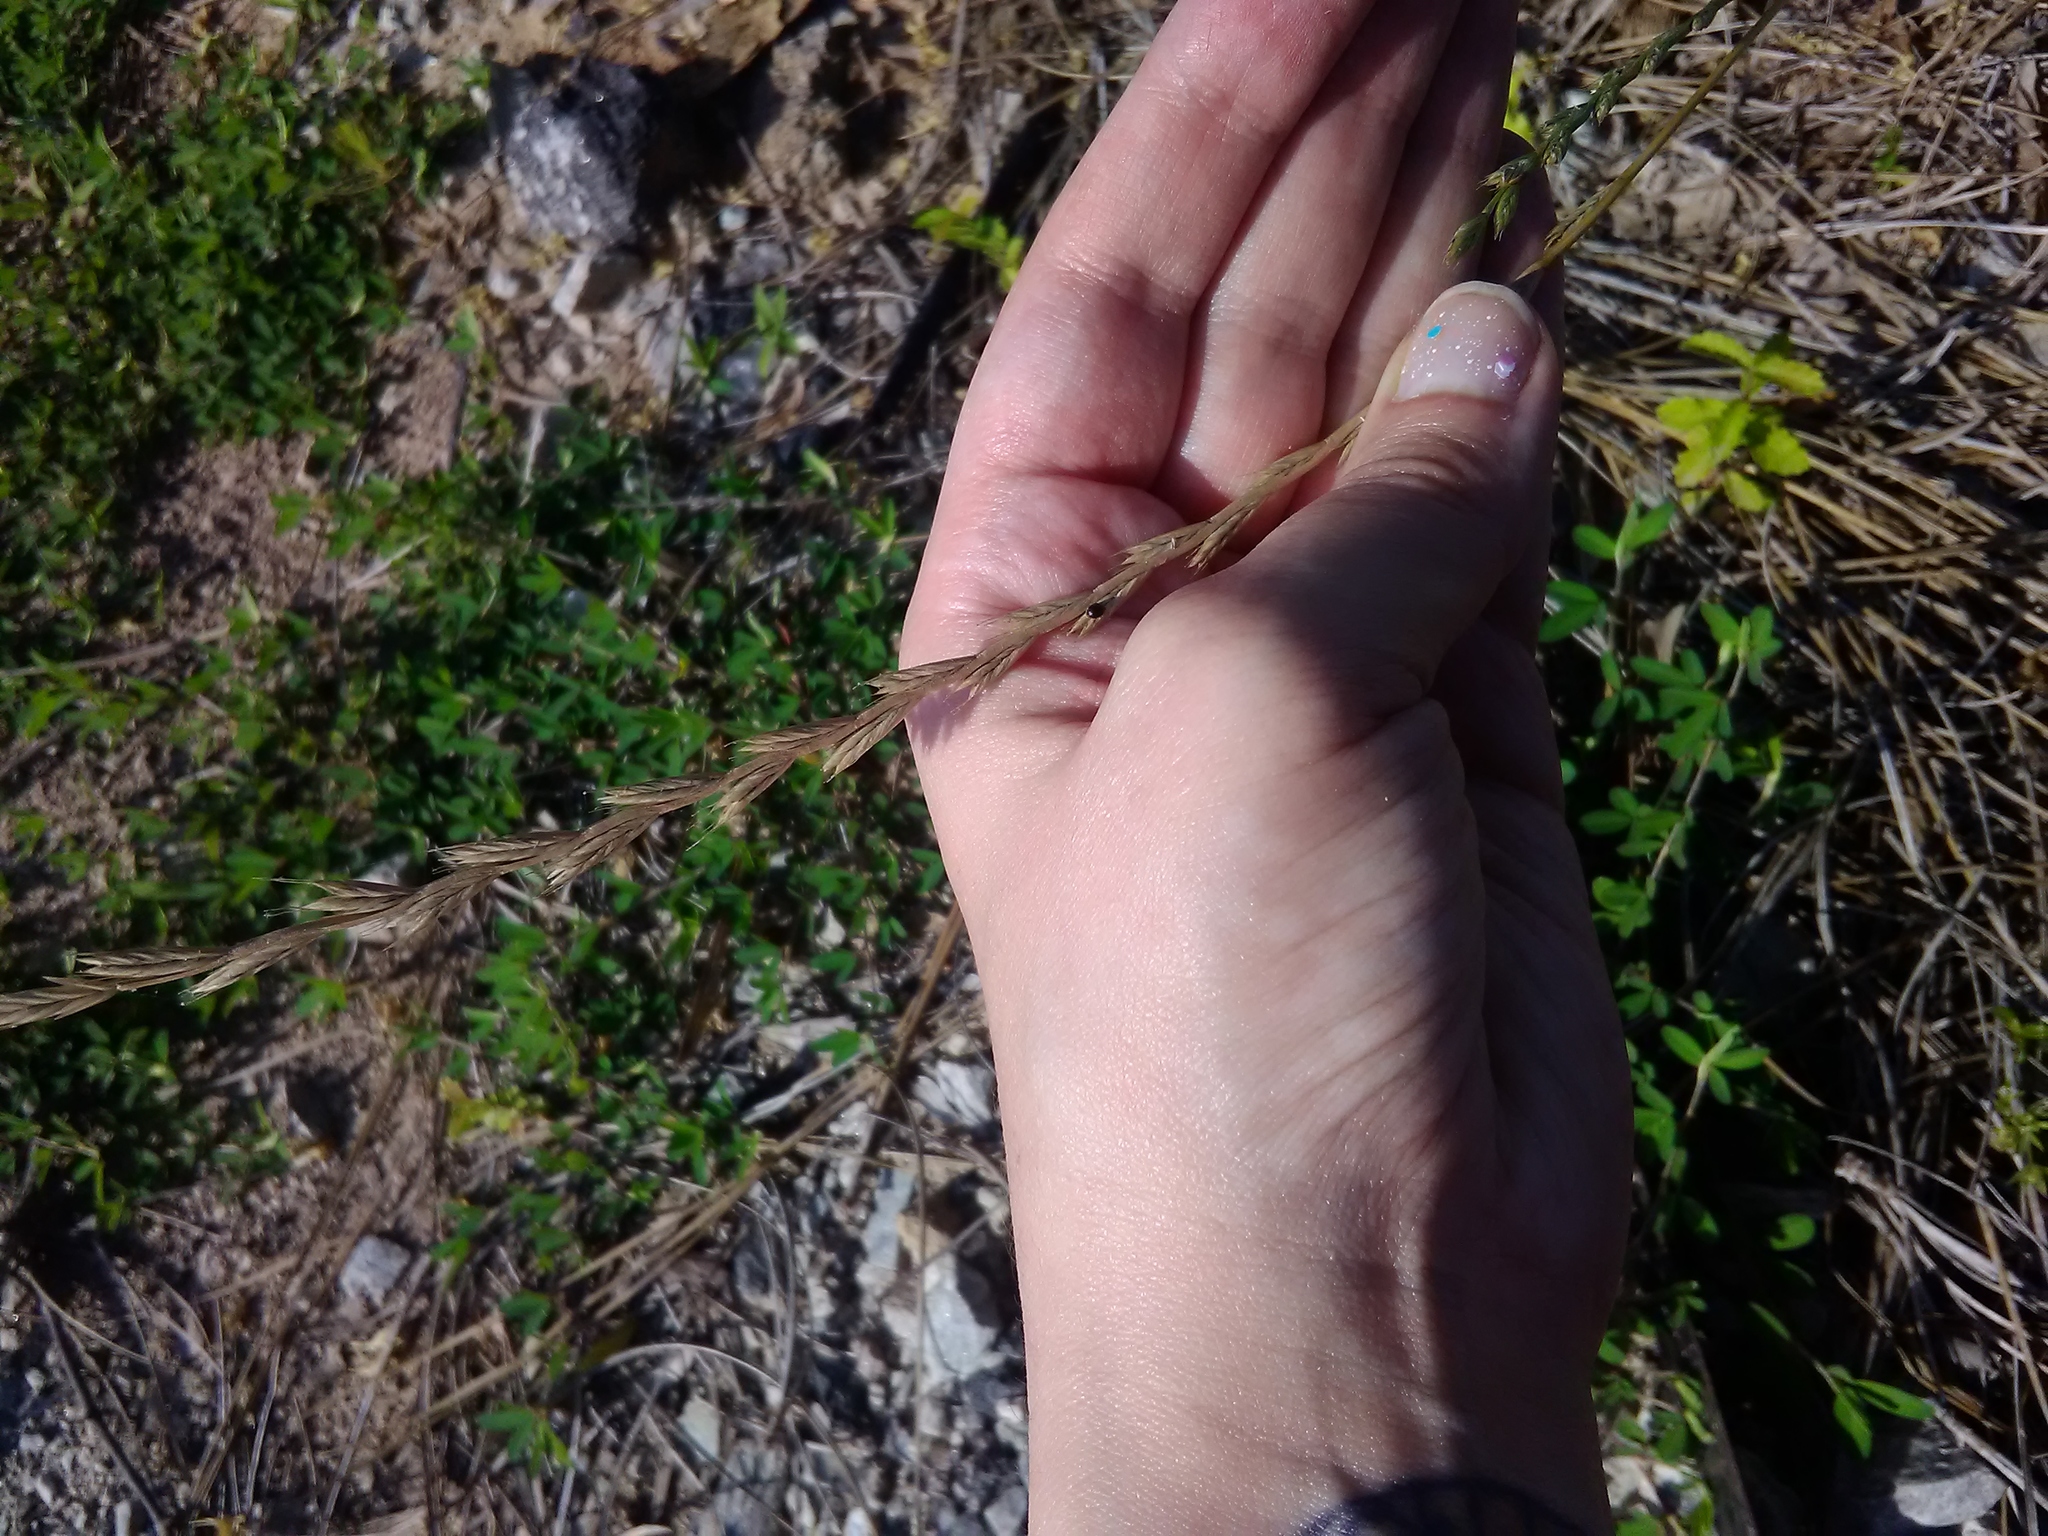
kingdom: Plantae
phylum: Tracheophyta
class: Liliopsida
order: Poales
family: Poaceae
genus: Lolium
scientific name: Lolium perenne
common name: Perennial ryegrass
